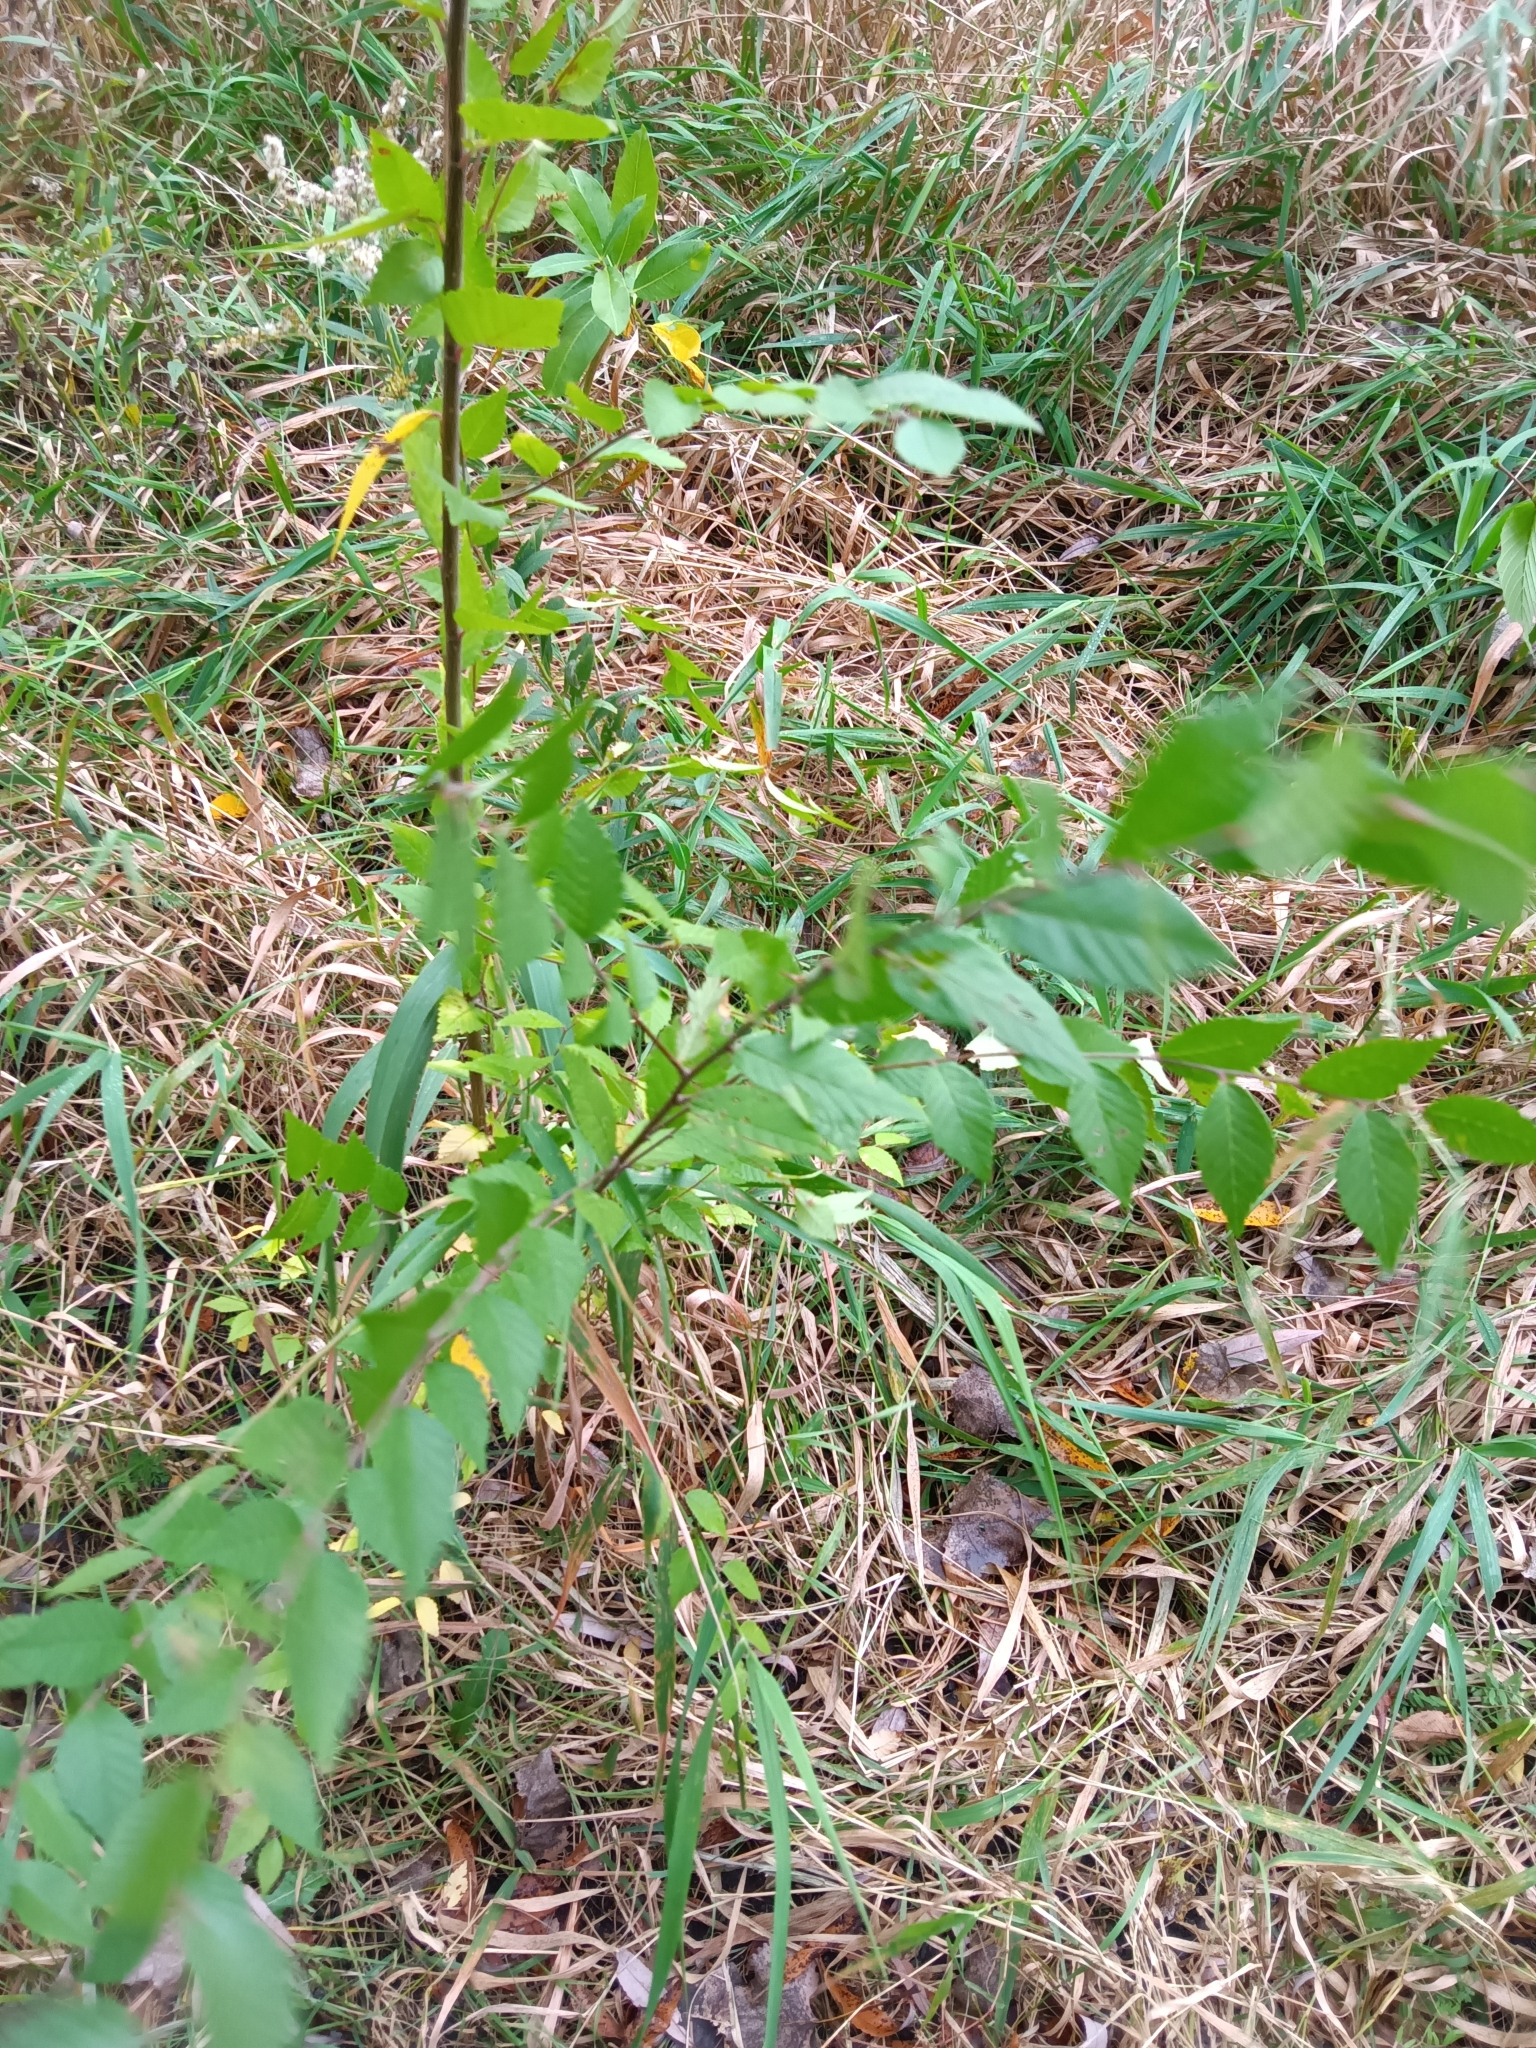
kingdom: Plantae
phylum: Tracheophyta
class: Magnoliopsida
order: Rosales
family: Ulmaceae
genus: Ulmus
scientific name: Ulmus pumila
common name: Siberian elm
